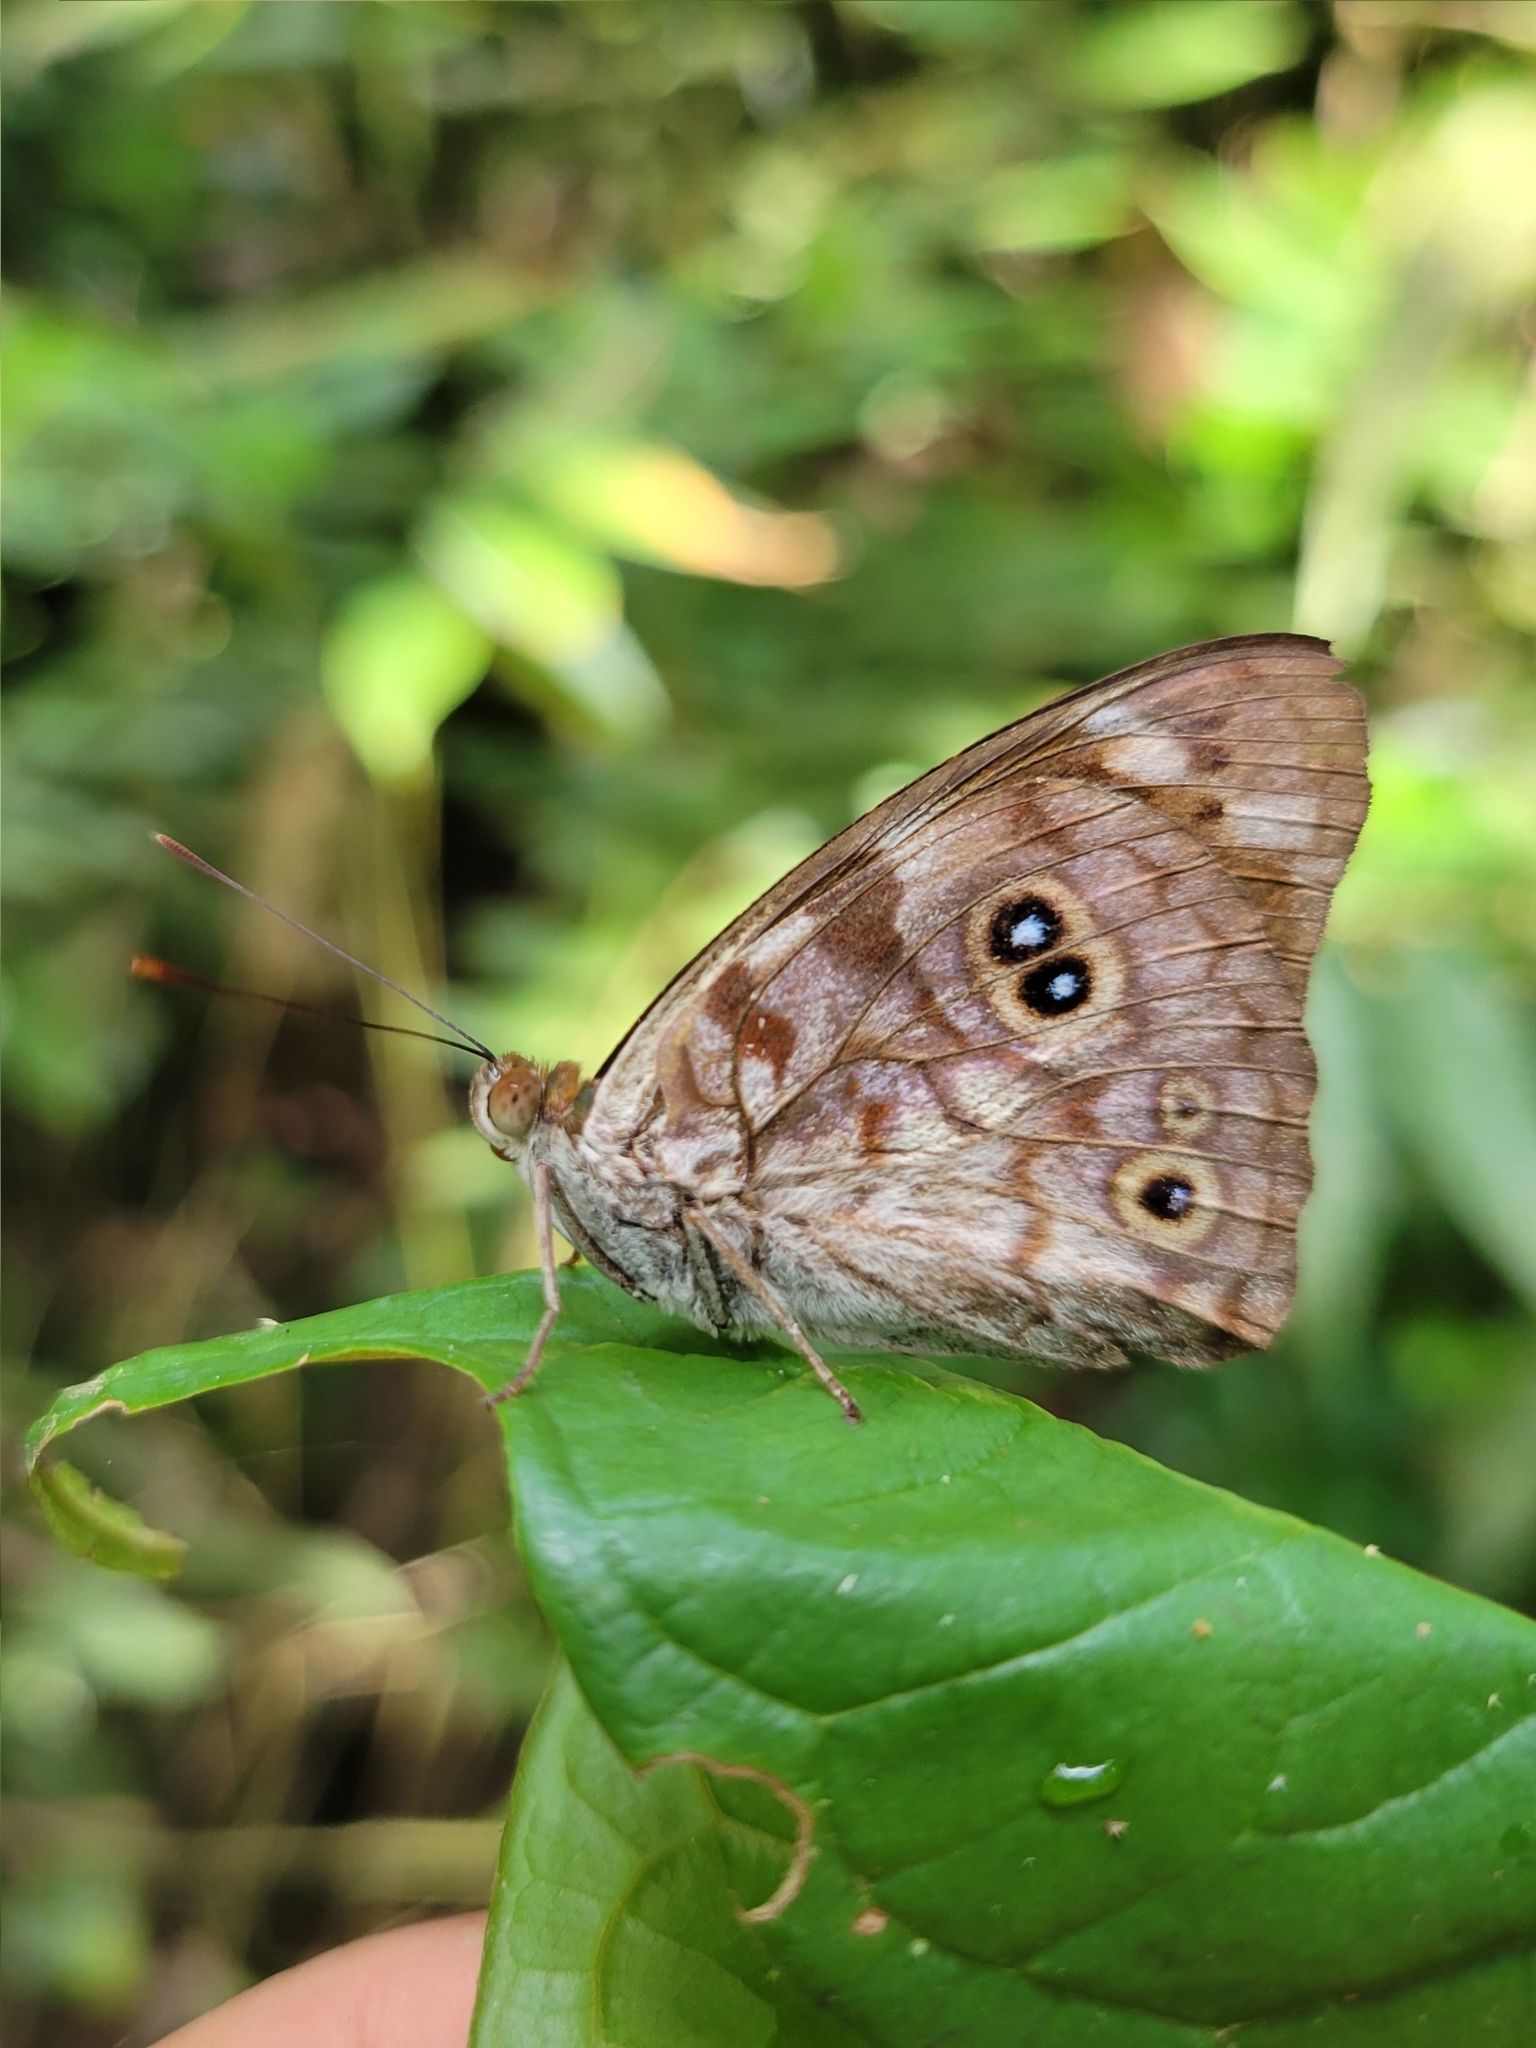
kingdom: Animalia
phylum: Arthropoda
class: Insecta
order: Lepidoptera
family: Nymphalidae
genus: Eunica
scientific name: Eunica malvina
